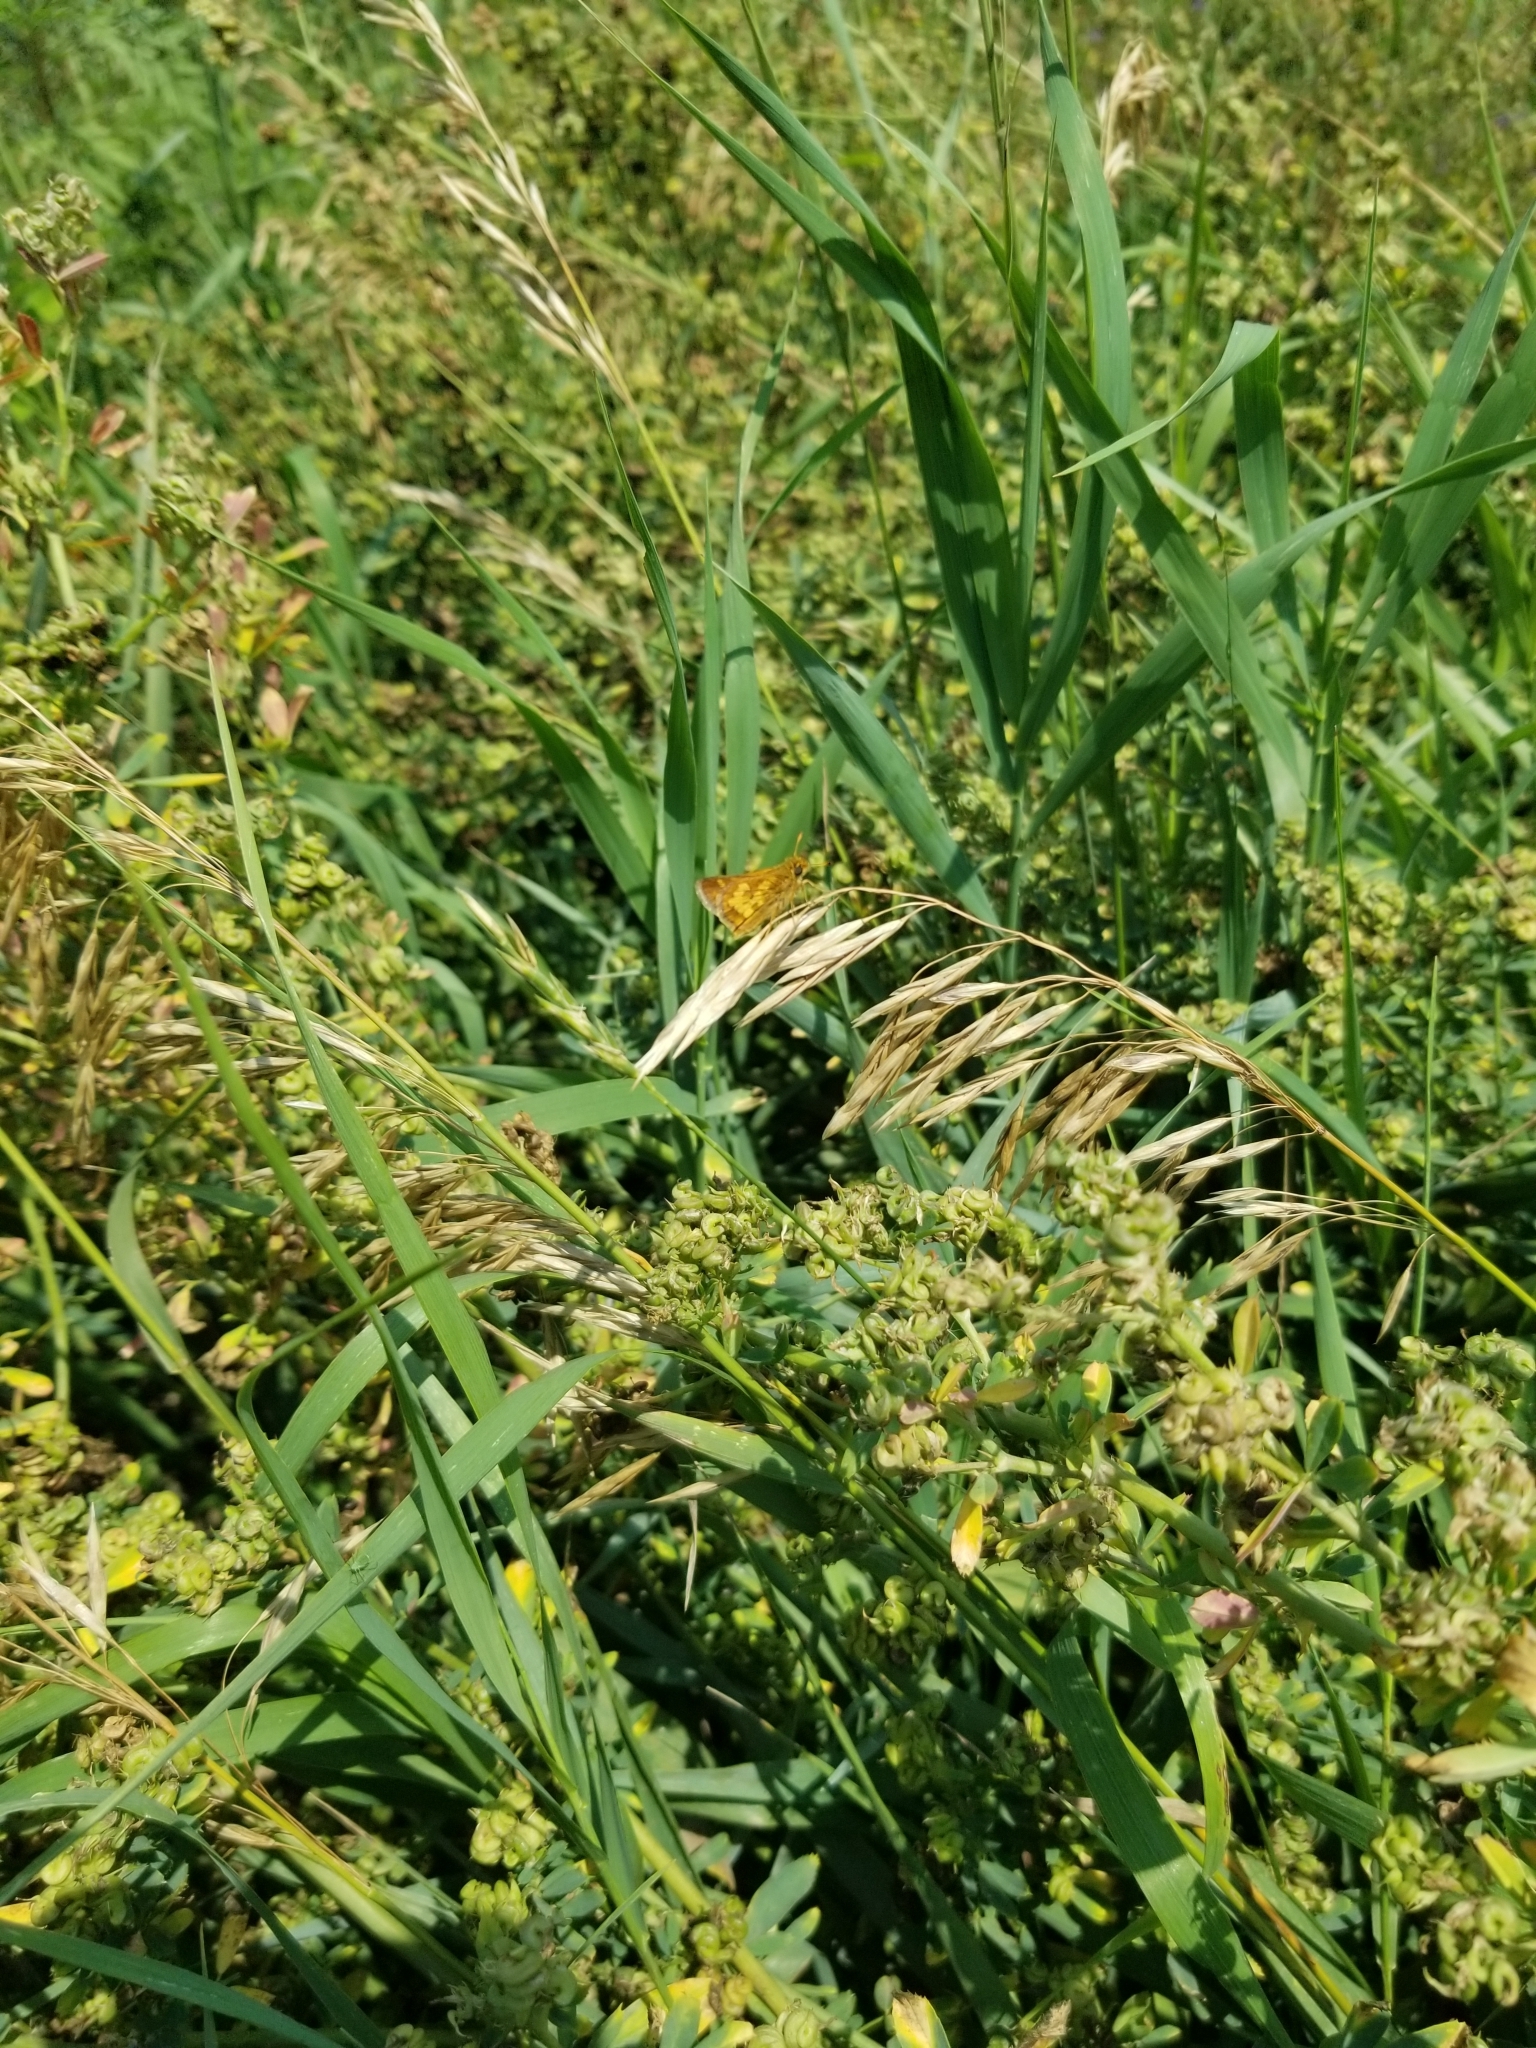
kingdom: Animalia
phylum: Arthropoda
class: Insecta
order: Lepidoptera
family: Hesperiidae
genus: Polites
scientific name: Polites coras
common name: Peck's skipper
